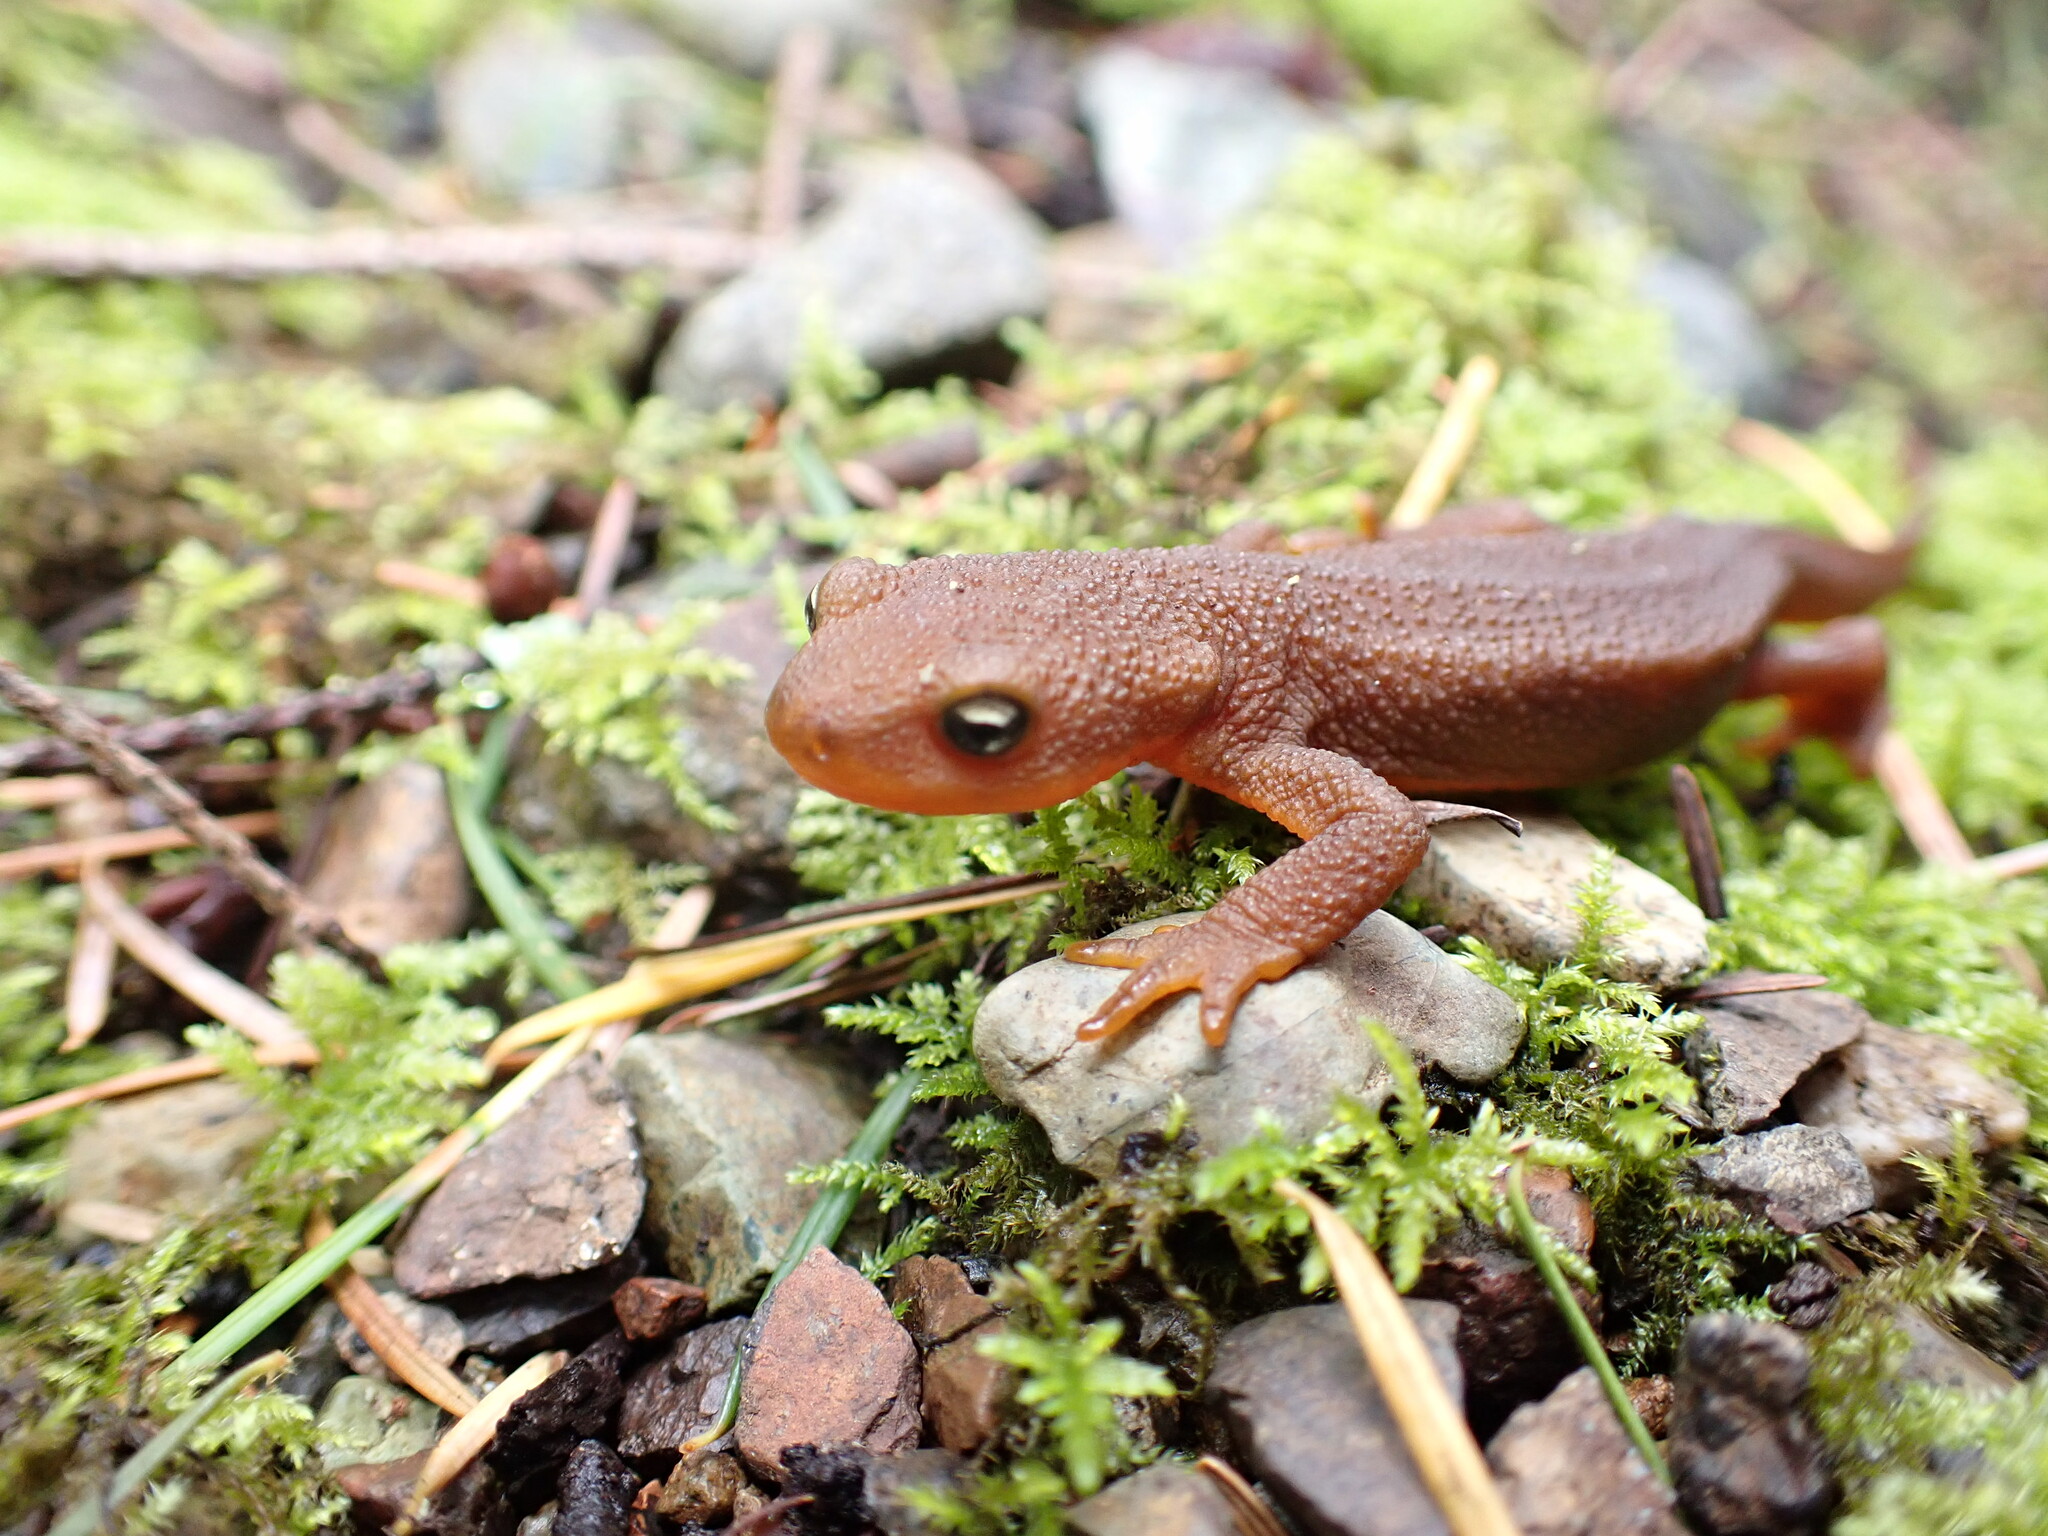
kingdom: Animalia
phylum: Chordata
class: Amphibia
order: Caudata
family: Salamandridae
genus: Taricha
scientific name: Taricha granulosa
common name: Roughskin newt
